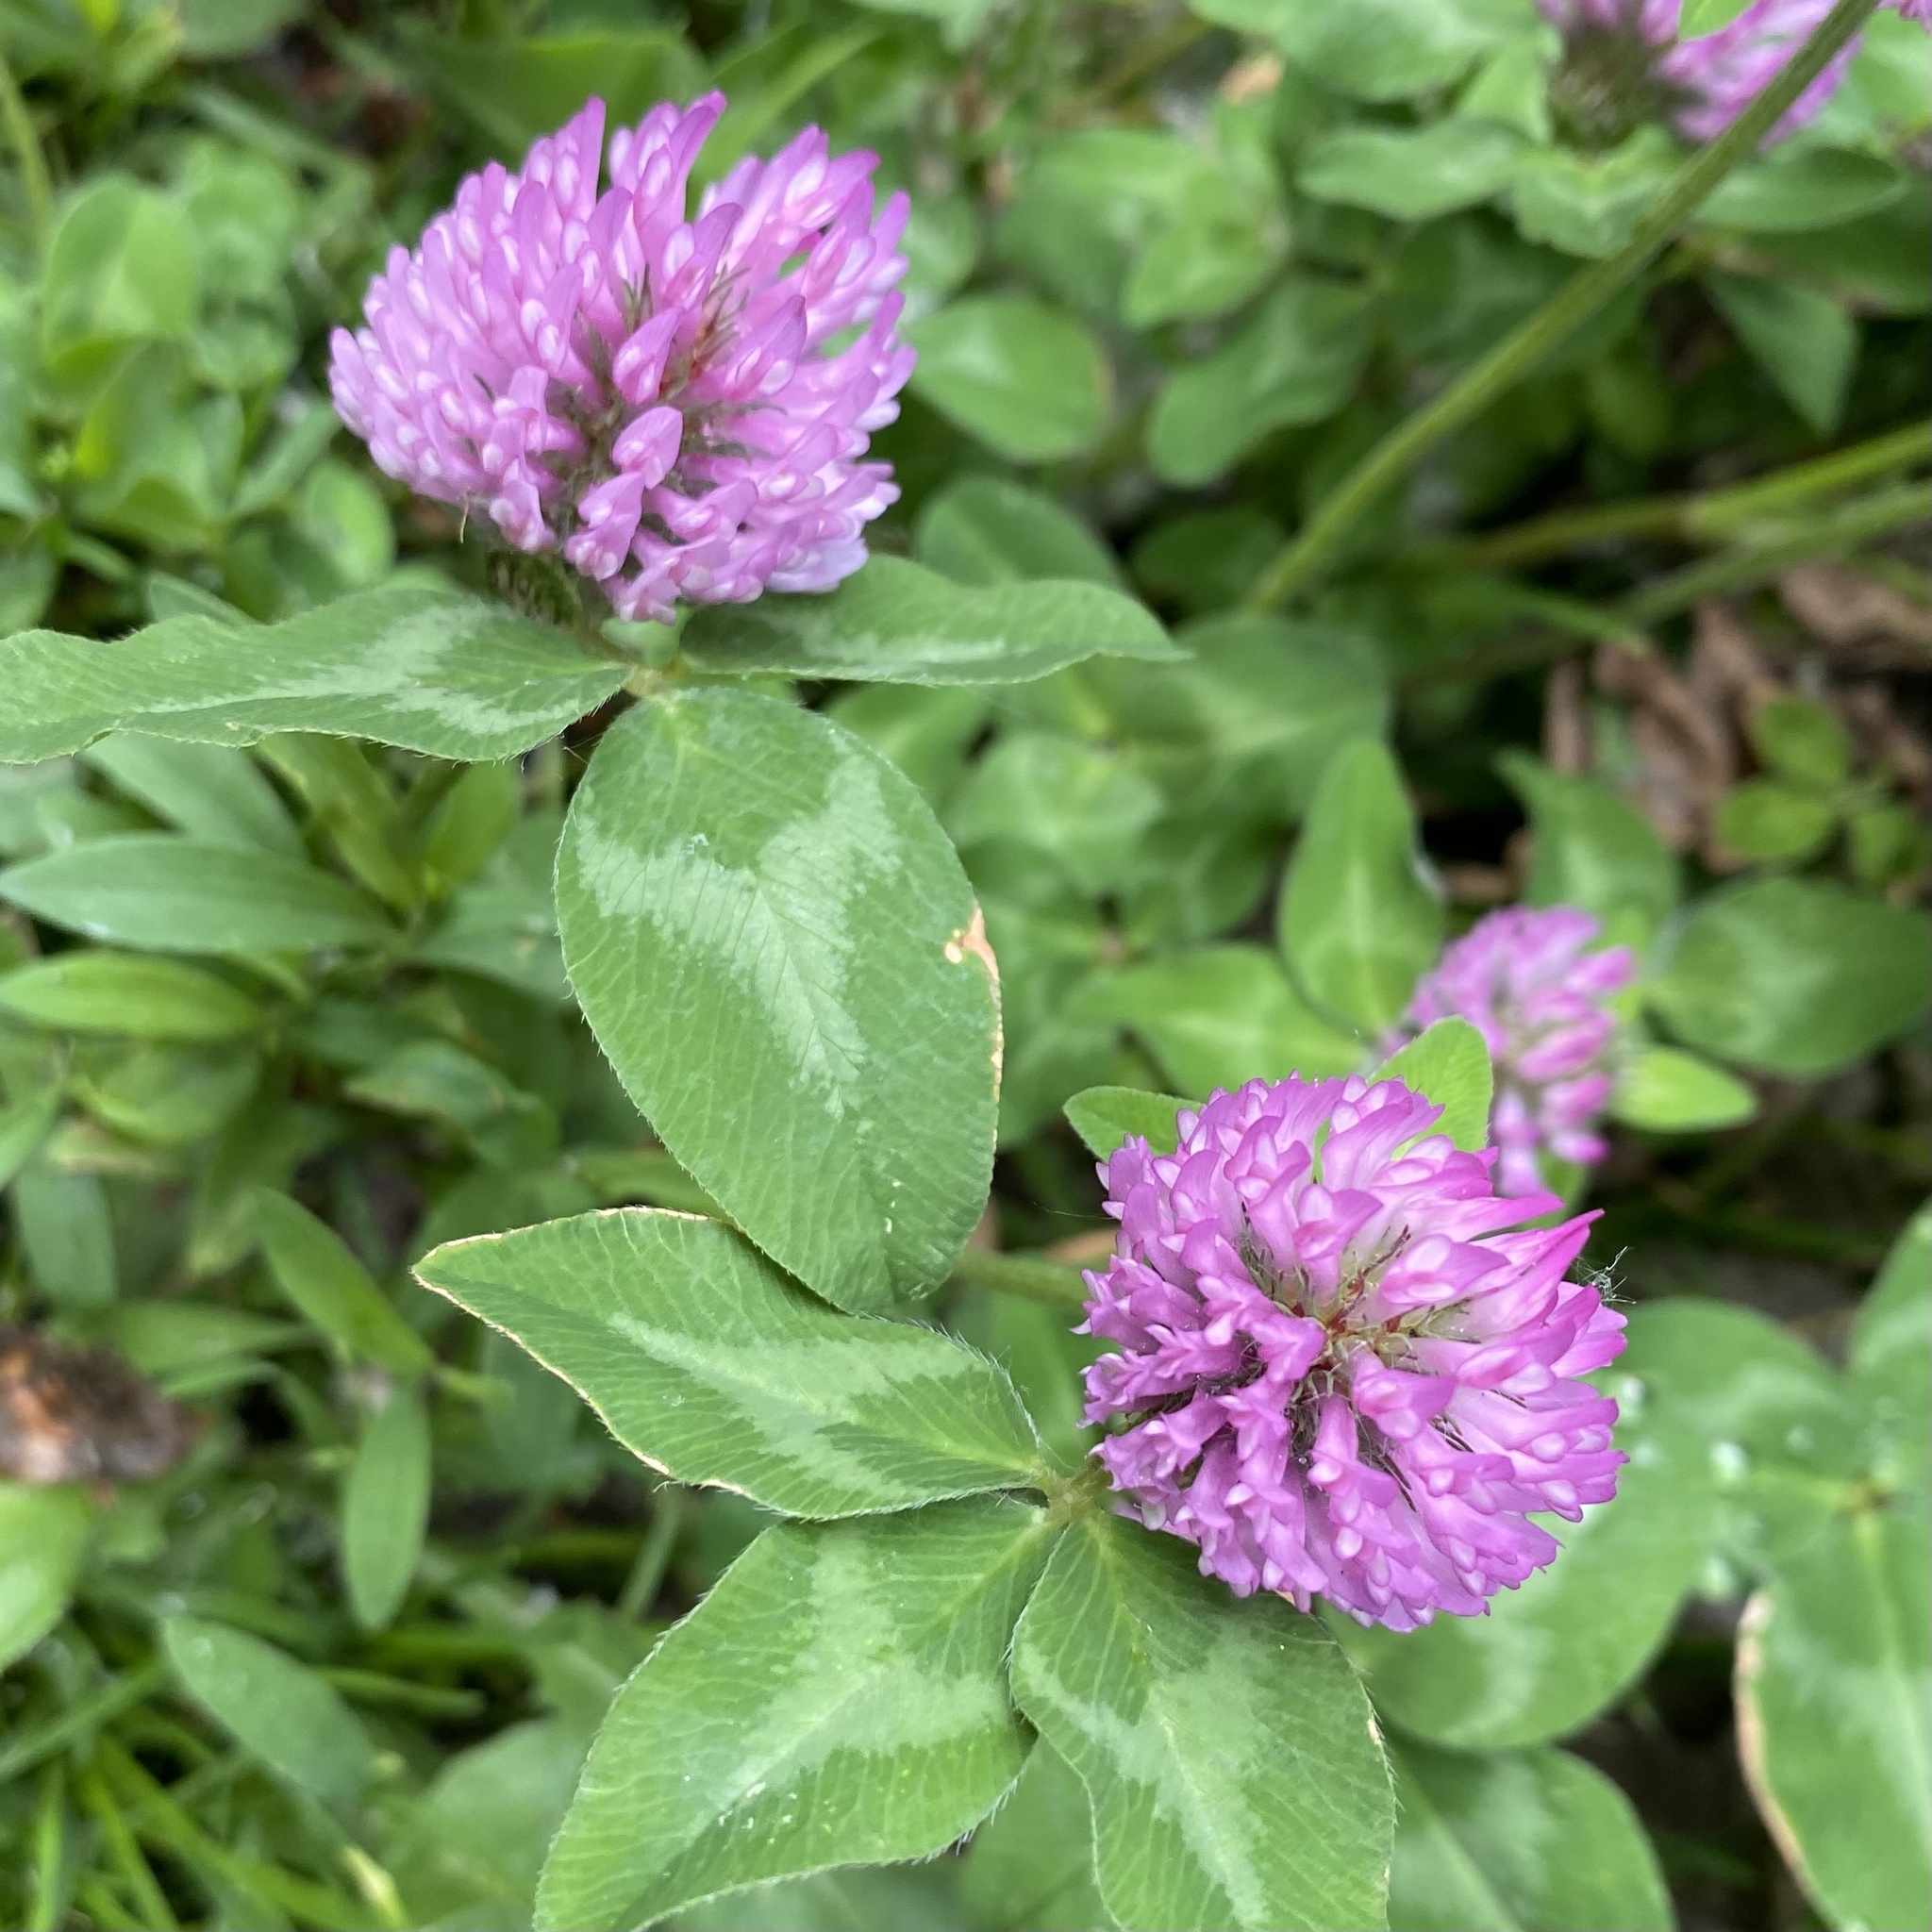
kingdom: Plantae
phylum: Tracheophyta
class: Magnoliopsida
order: Fabales
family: Fabaceae
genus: Trifolium
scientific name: Trifolium pratense
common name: Red clover
